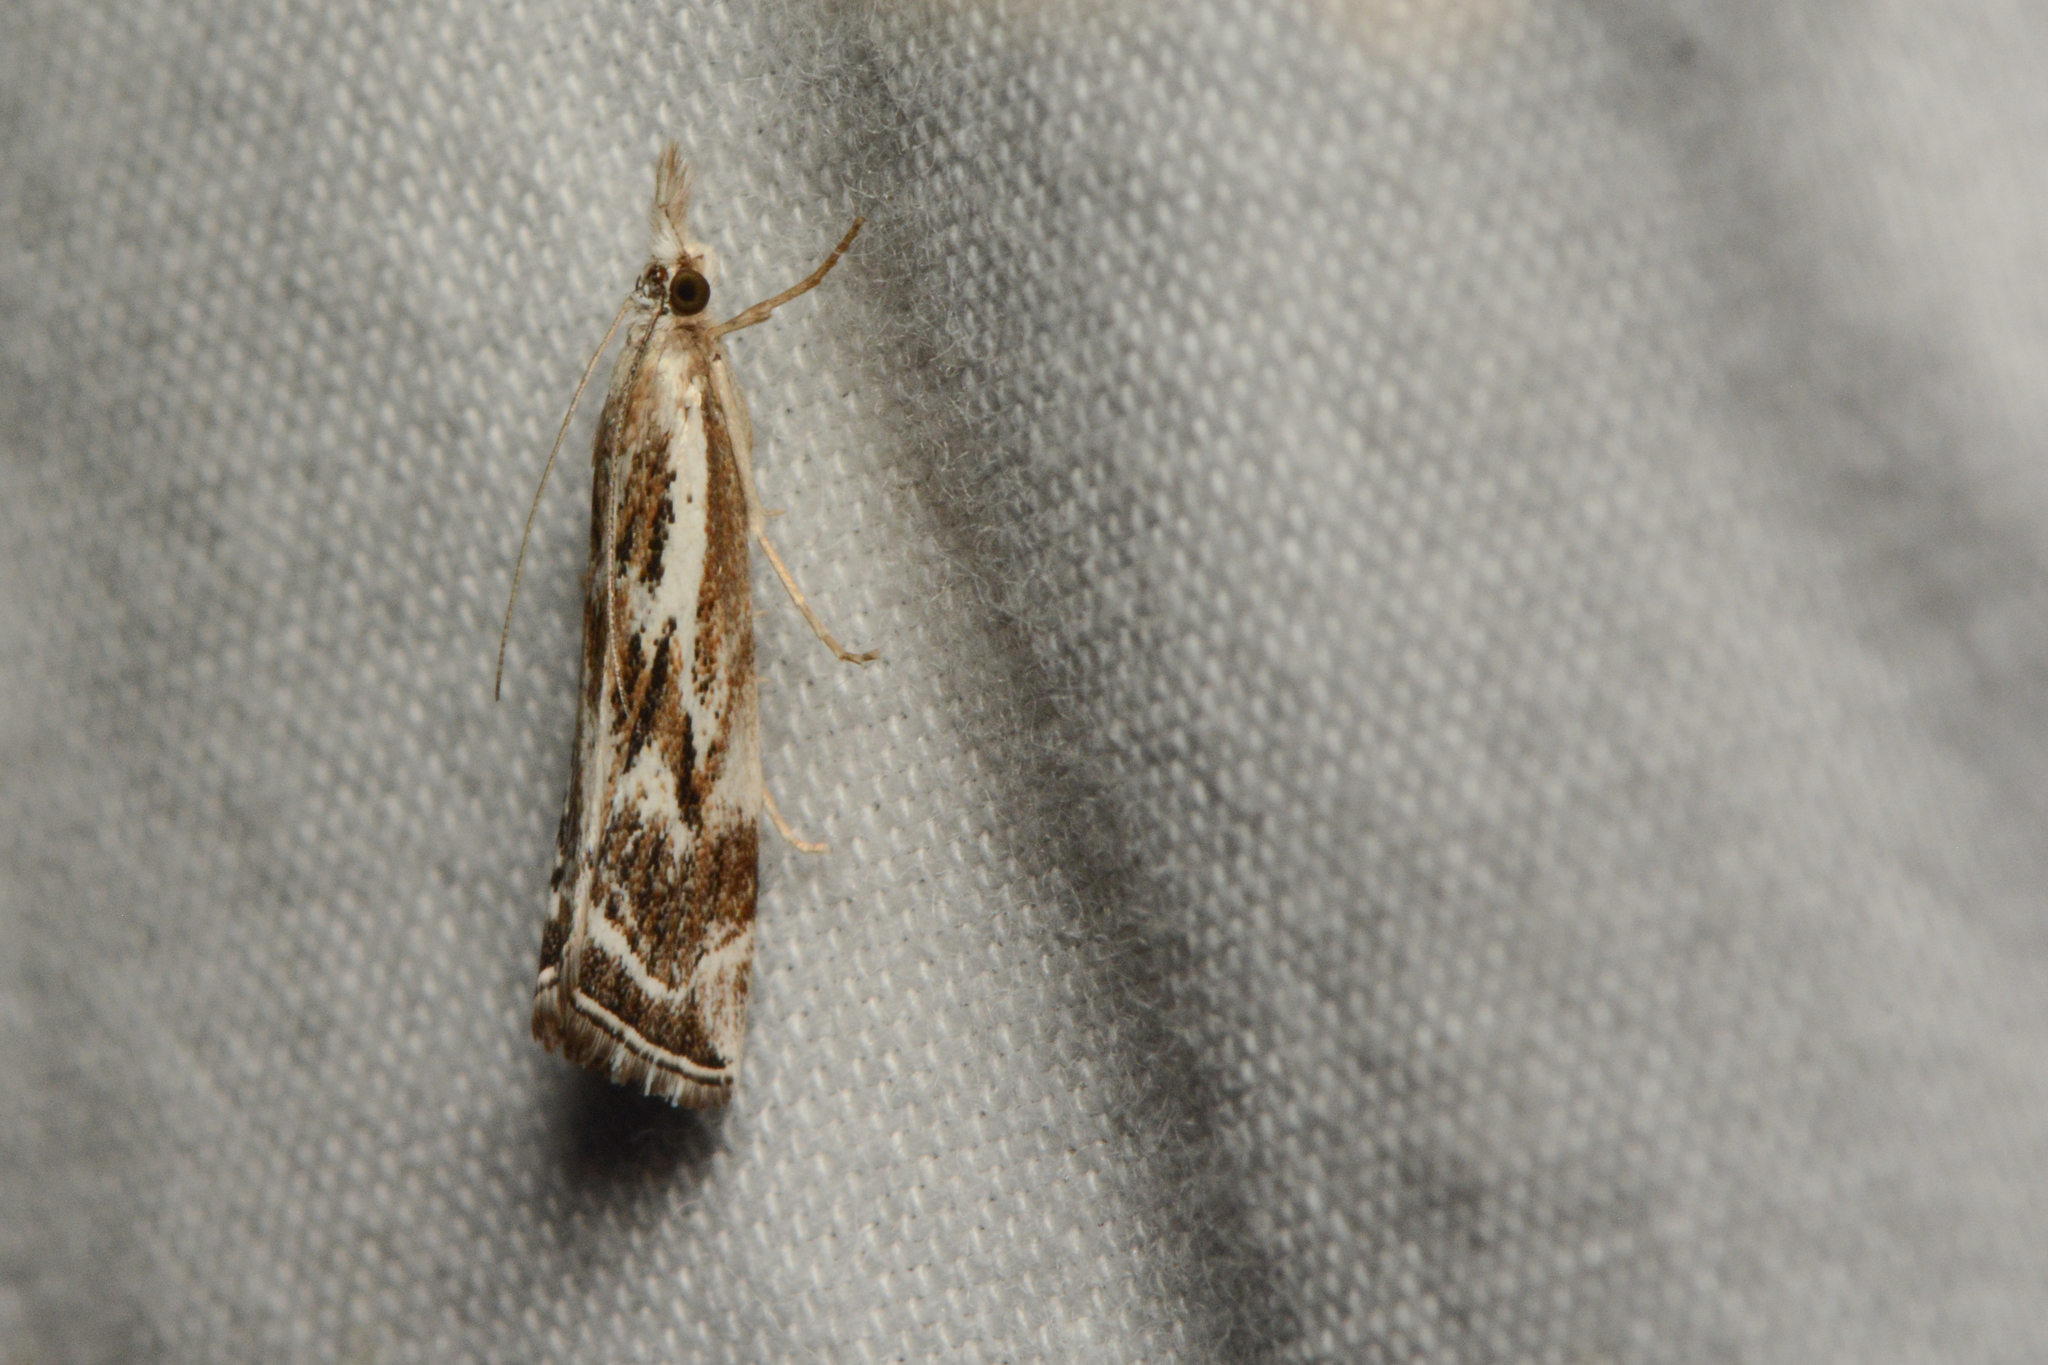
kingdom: Animalia
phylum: Arthropoda
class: Insecta
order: Lepidoptera
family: Crambidae
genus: Catoptria
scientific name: Catoptria oregonicus
